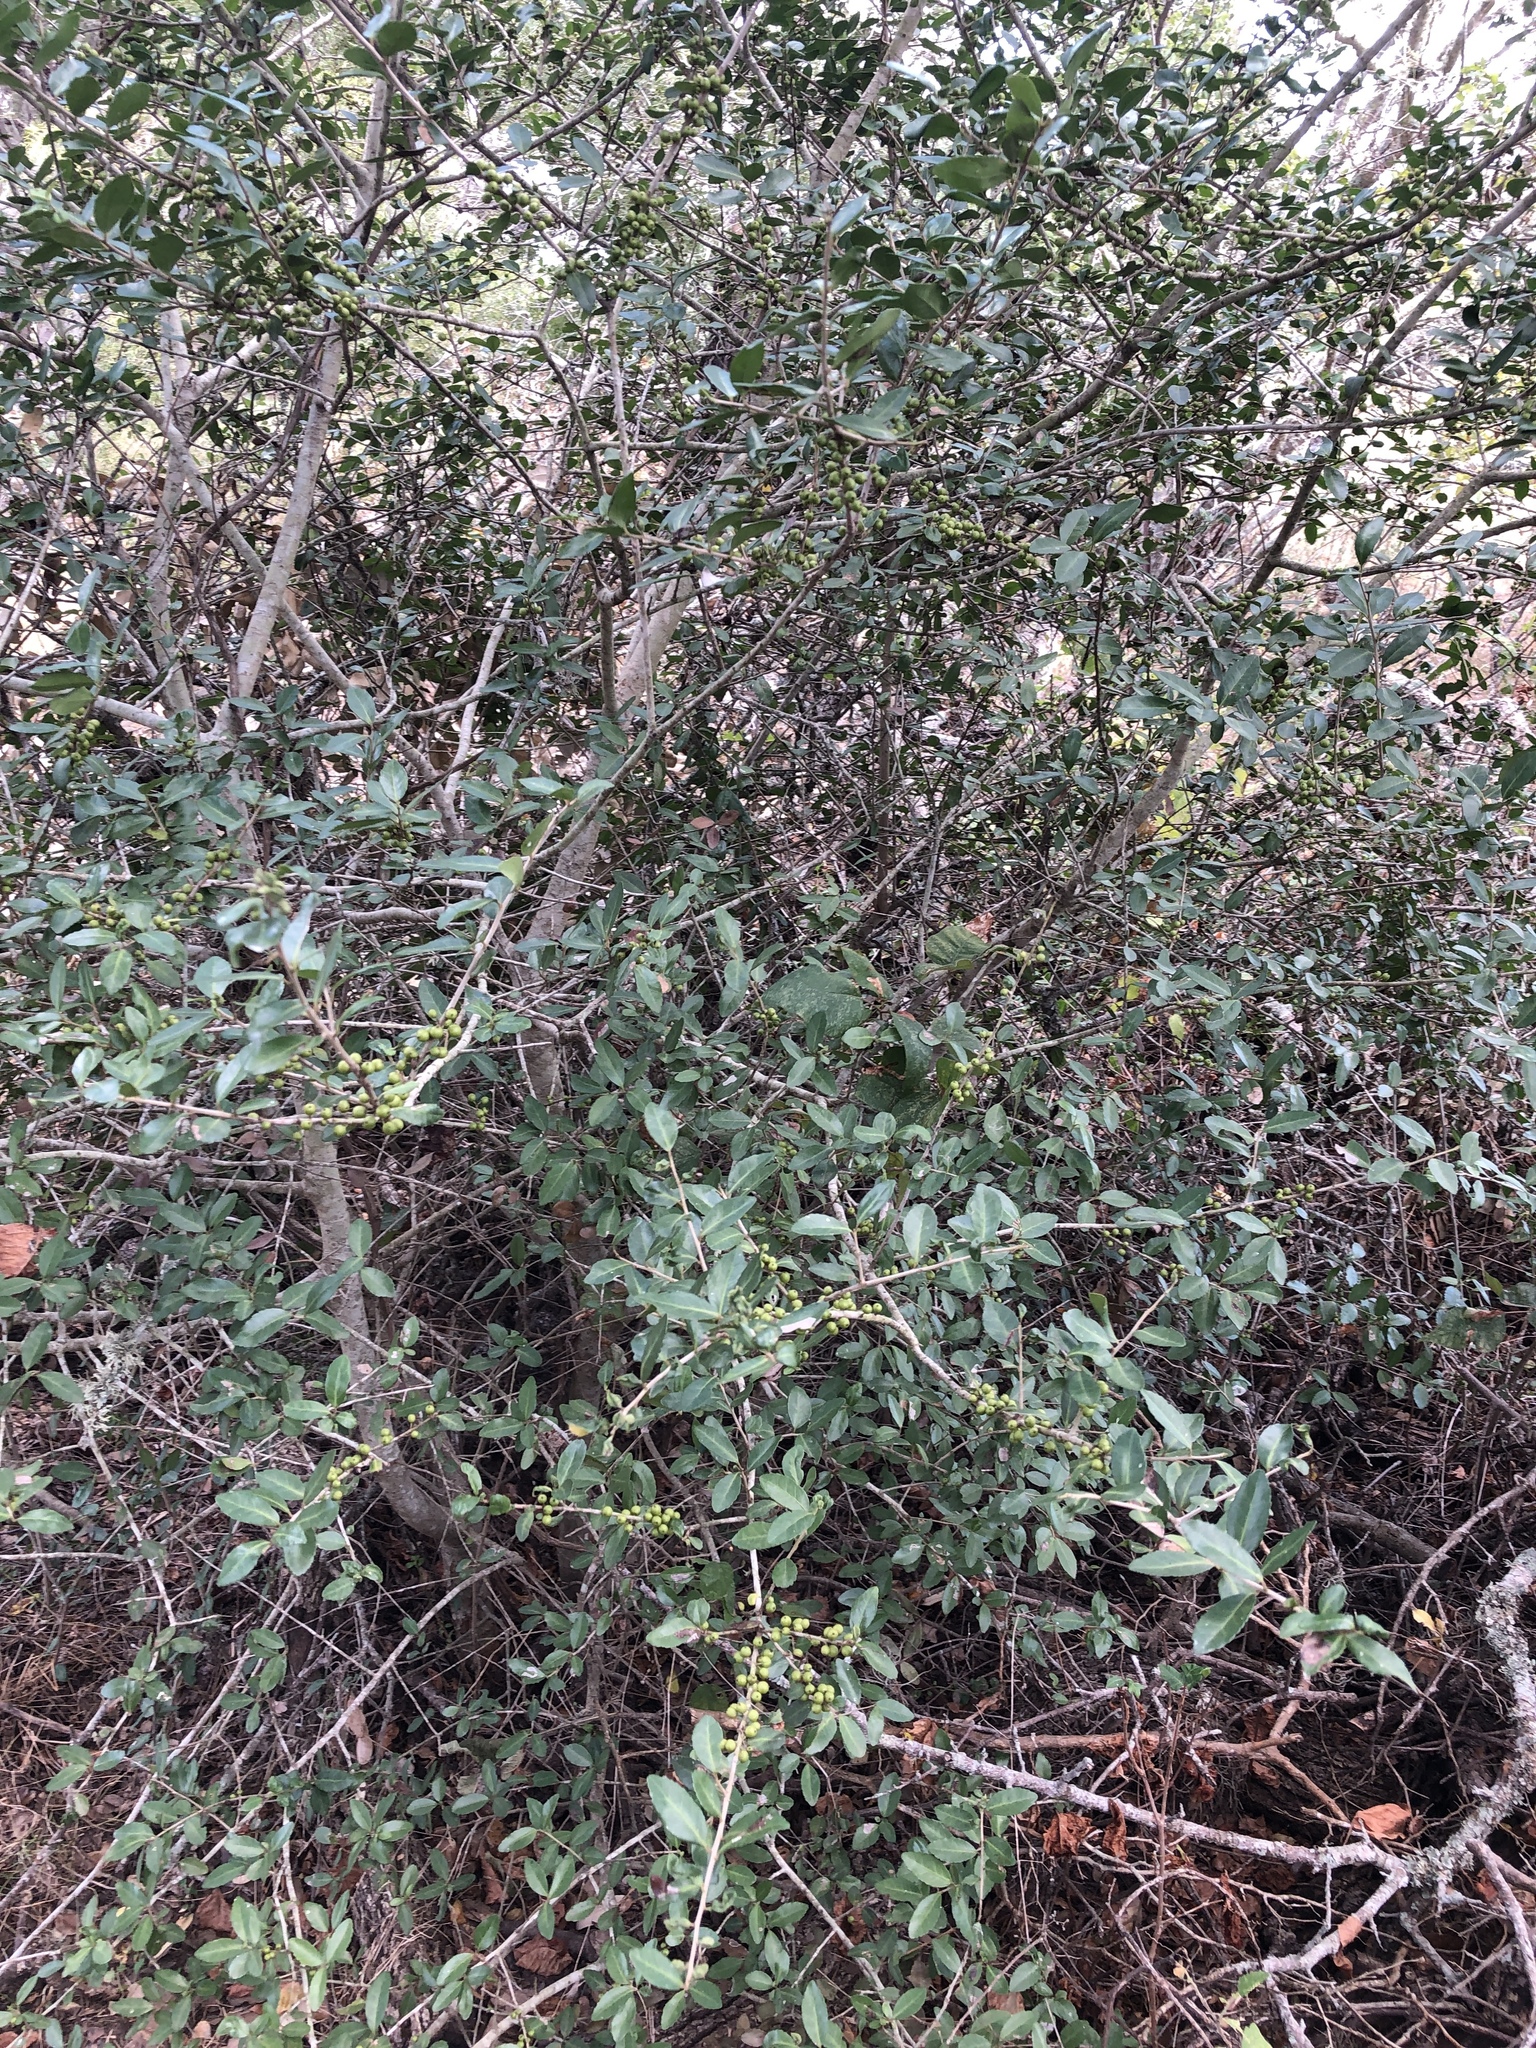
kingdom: Plantae
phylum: Tracheophyta
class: Magnoliopsida
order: Aquifoliales
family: Aquifoliaceae
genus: Ilex
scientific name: Ilex vomitoria
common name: Yaupon holly
